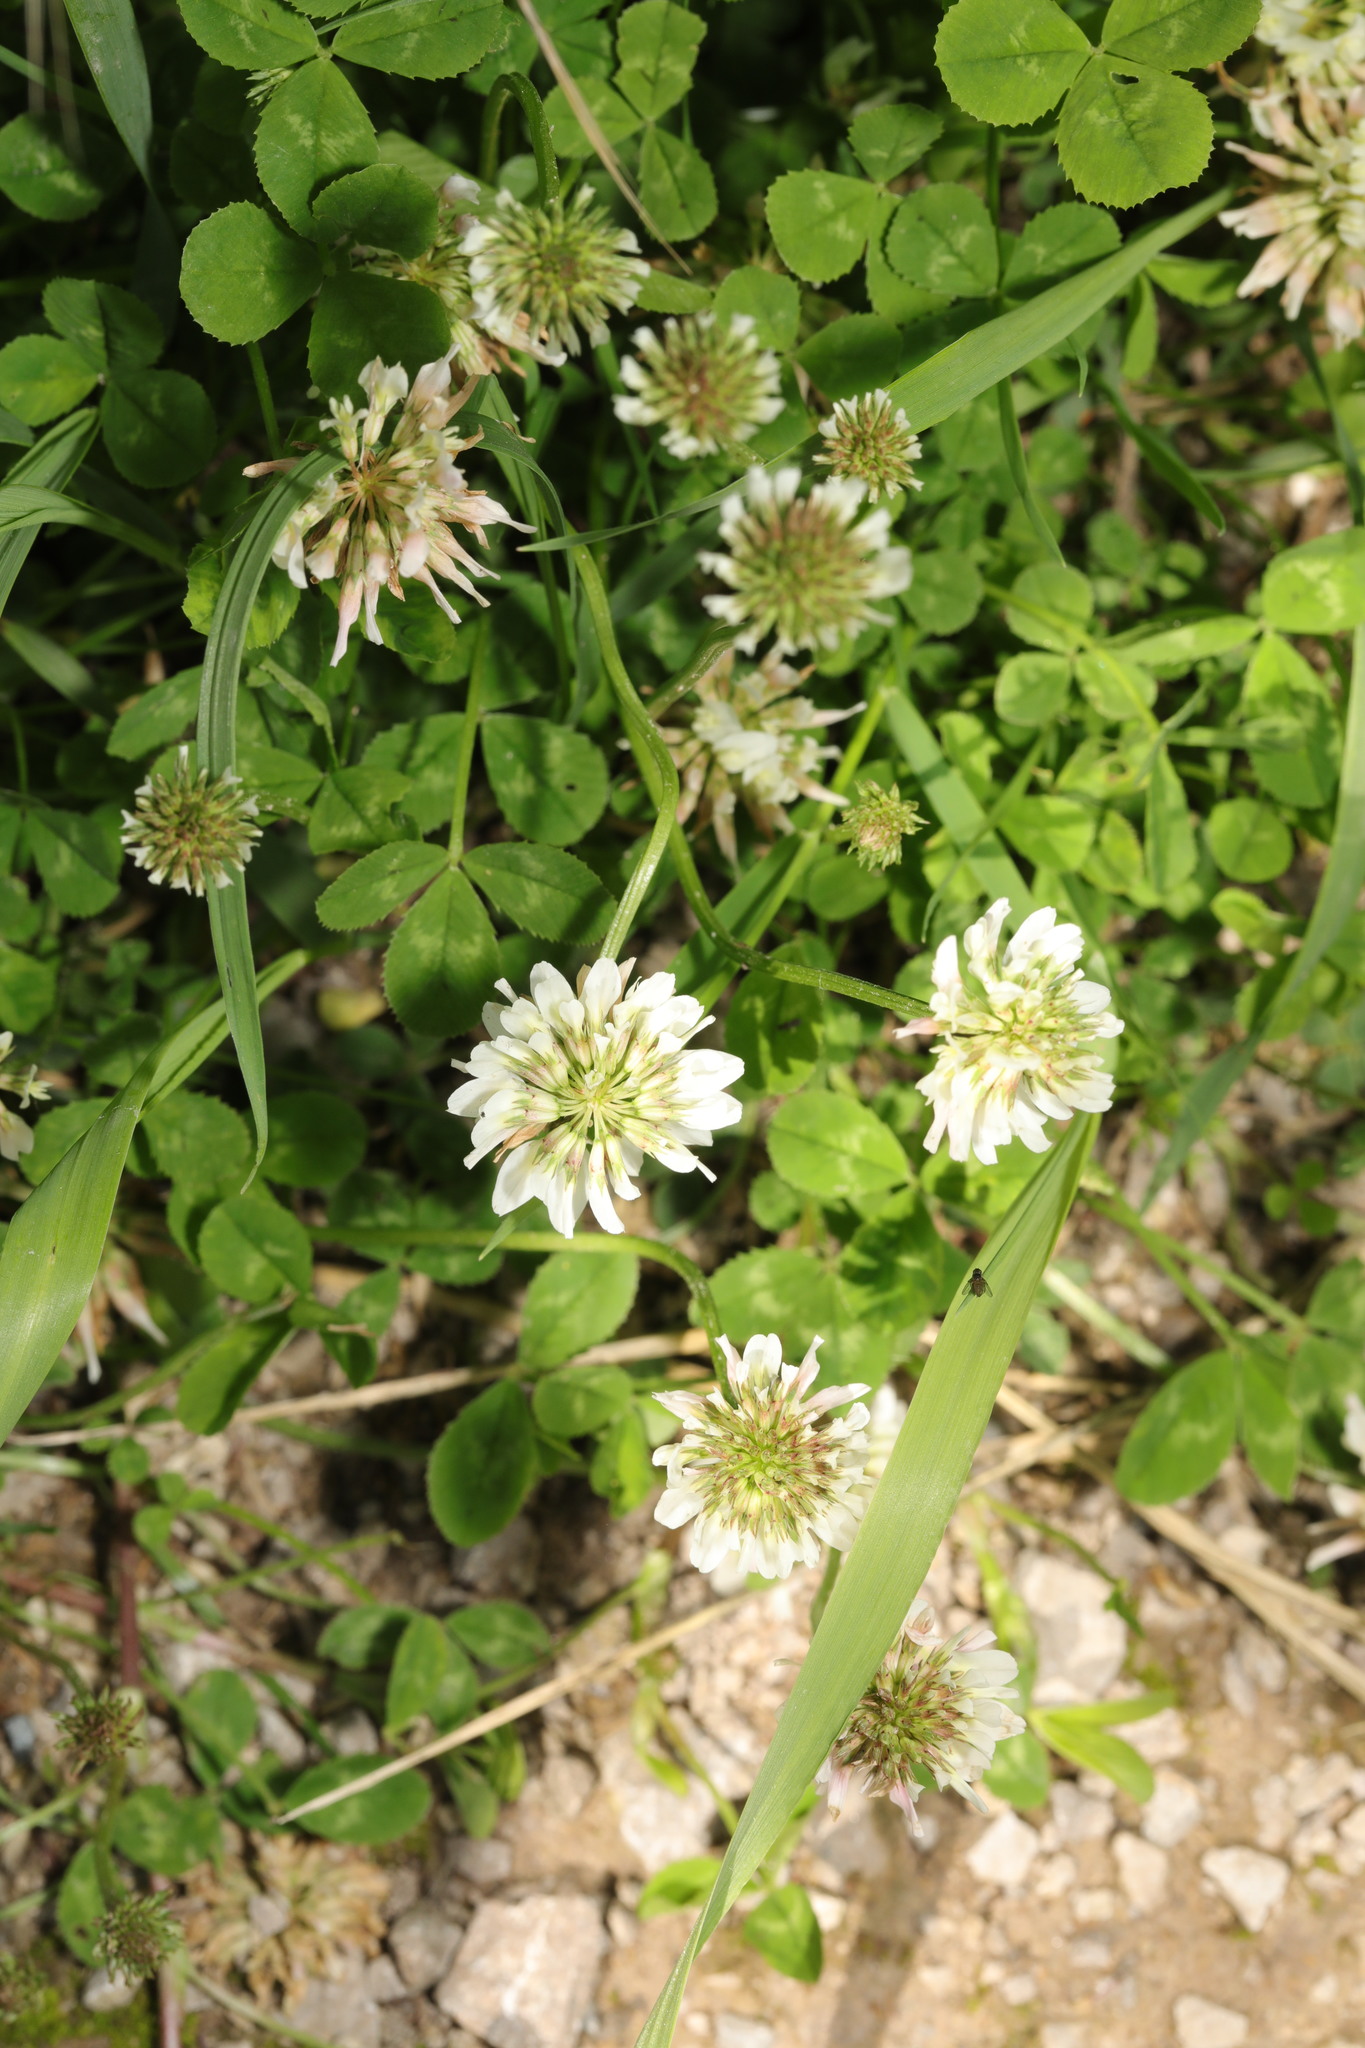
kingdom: Plantae
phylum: Tracheophyta
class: Magnoliopsida
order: Fabales
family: Fabaceae
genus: Trifolium
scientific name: Trifolium repens
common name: White clover
